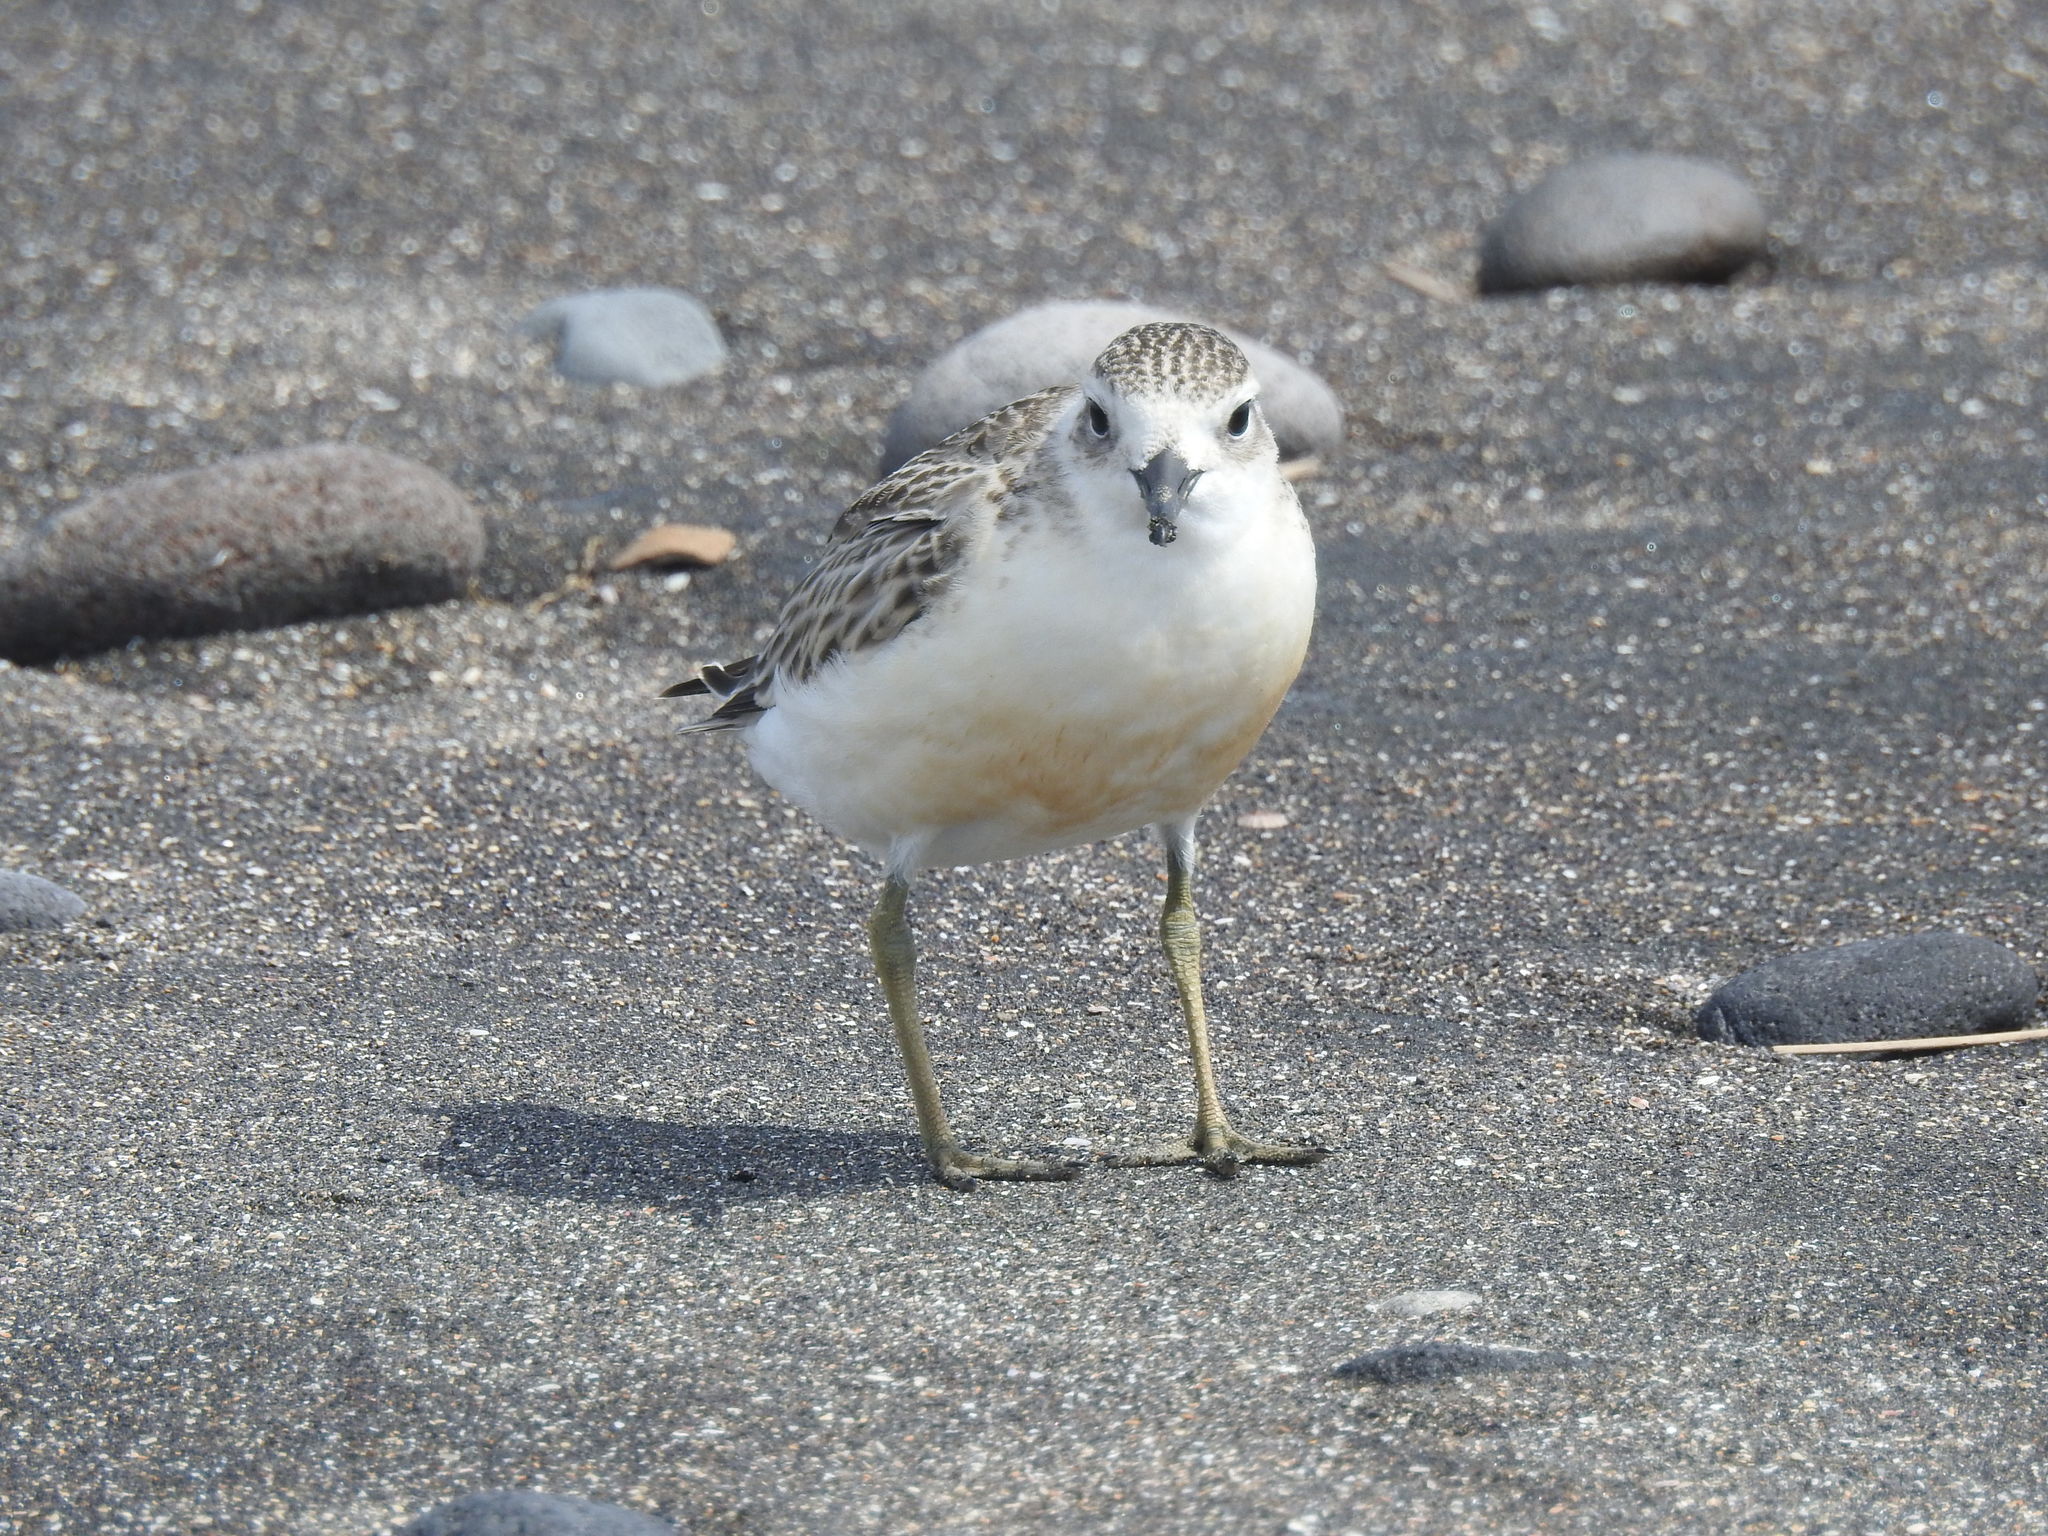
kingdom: Animalia
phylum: Chordata
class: Aves
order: Charadriiformes
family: Charadriidae
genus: Anarhynchus
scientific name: Anarhynchus
